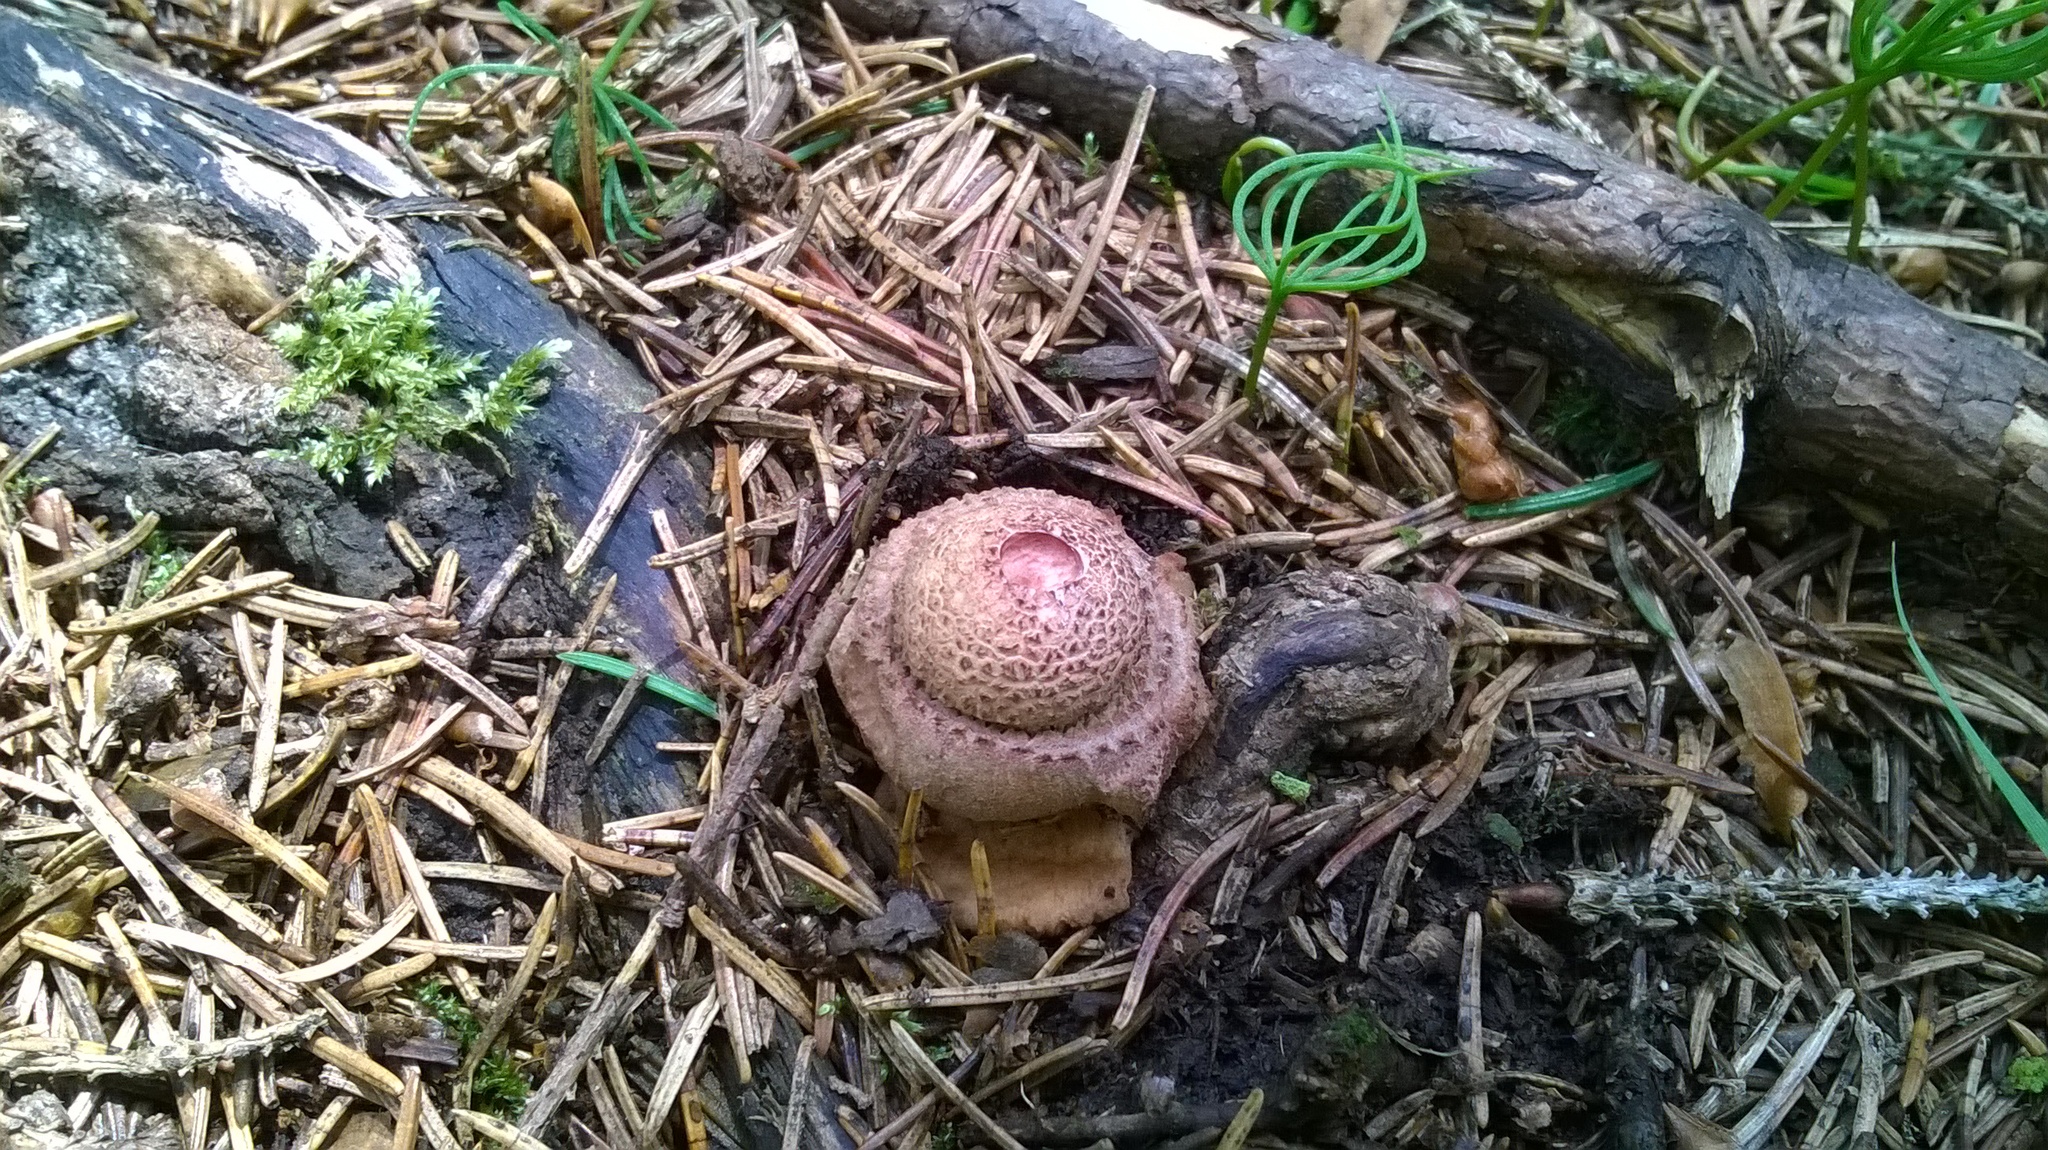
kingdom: Fungi
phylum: Basidiomycota
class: Agaricomycetes
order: Agaricales
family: Amanitaceae
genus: Amanita
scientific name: Amanita rubescens
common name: Blusher
